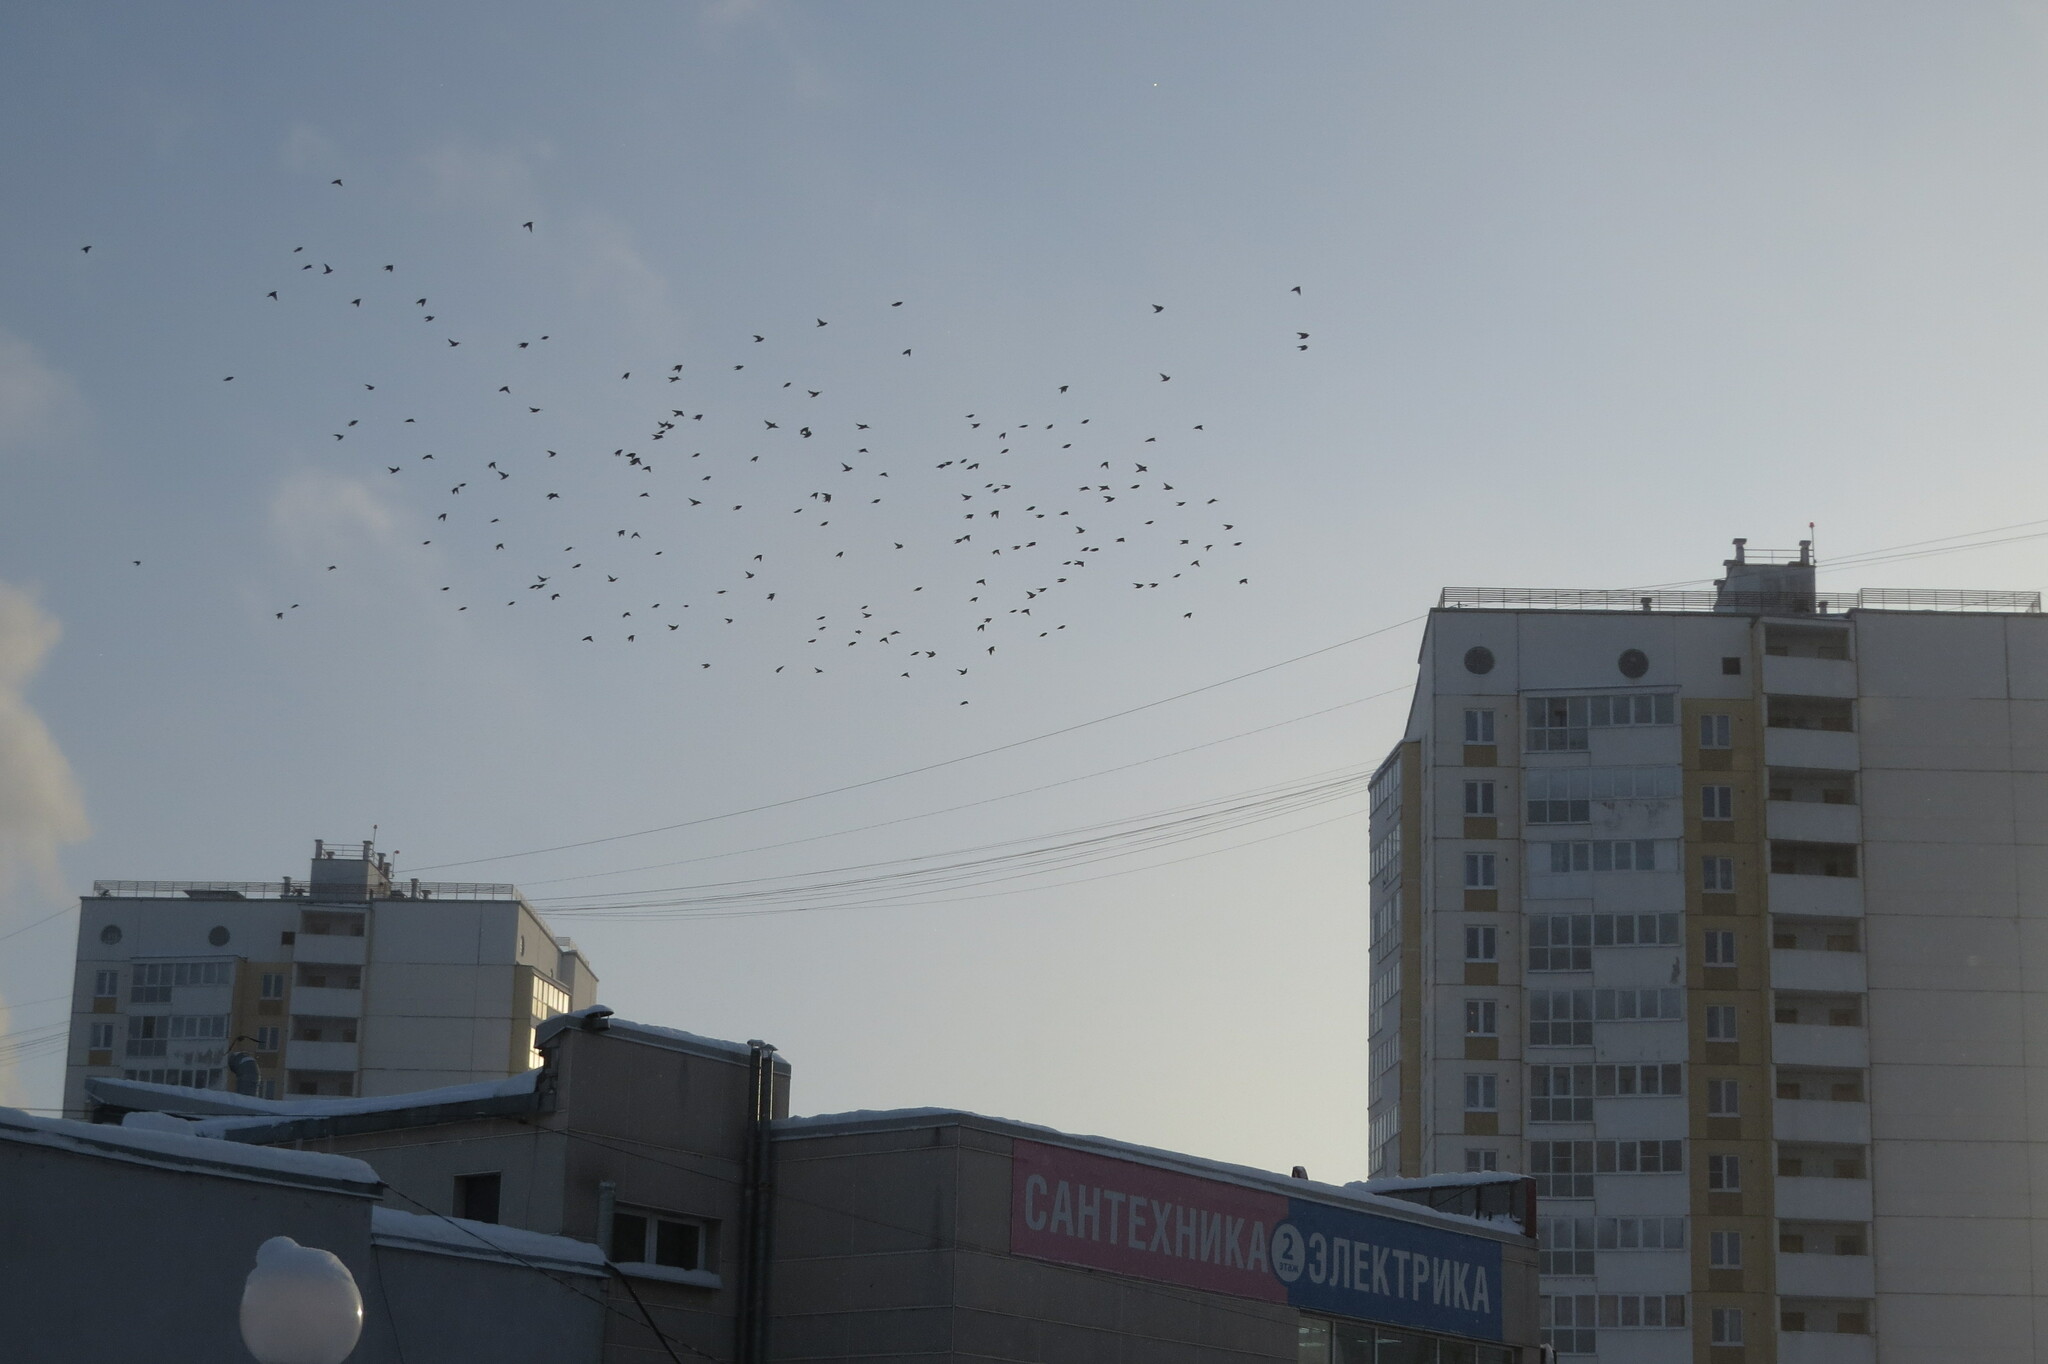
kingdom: Animalia
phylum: Chordata
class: Aves
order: Passeriformes
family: Bombycillidae
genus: Bombycilla
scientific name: Bombycilla garrulus
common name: Bohemian waxwing
